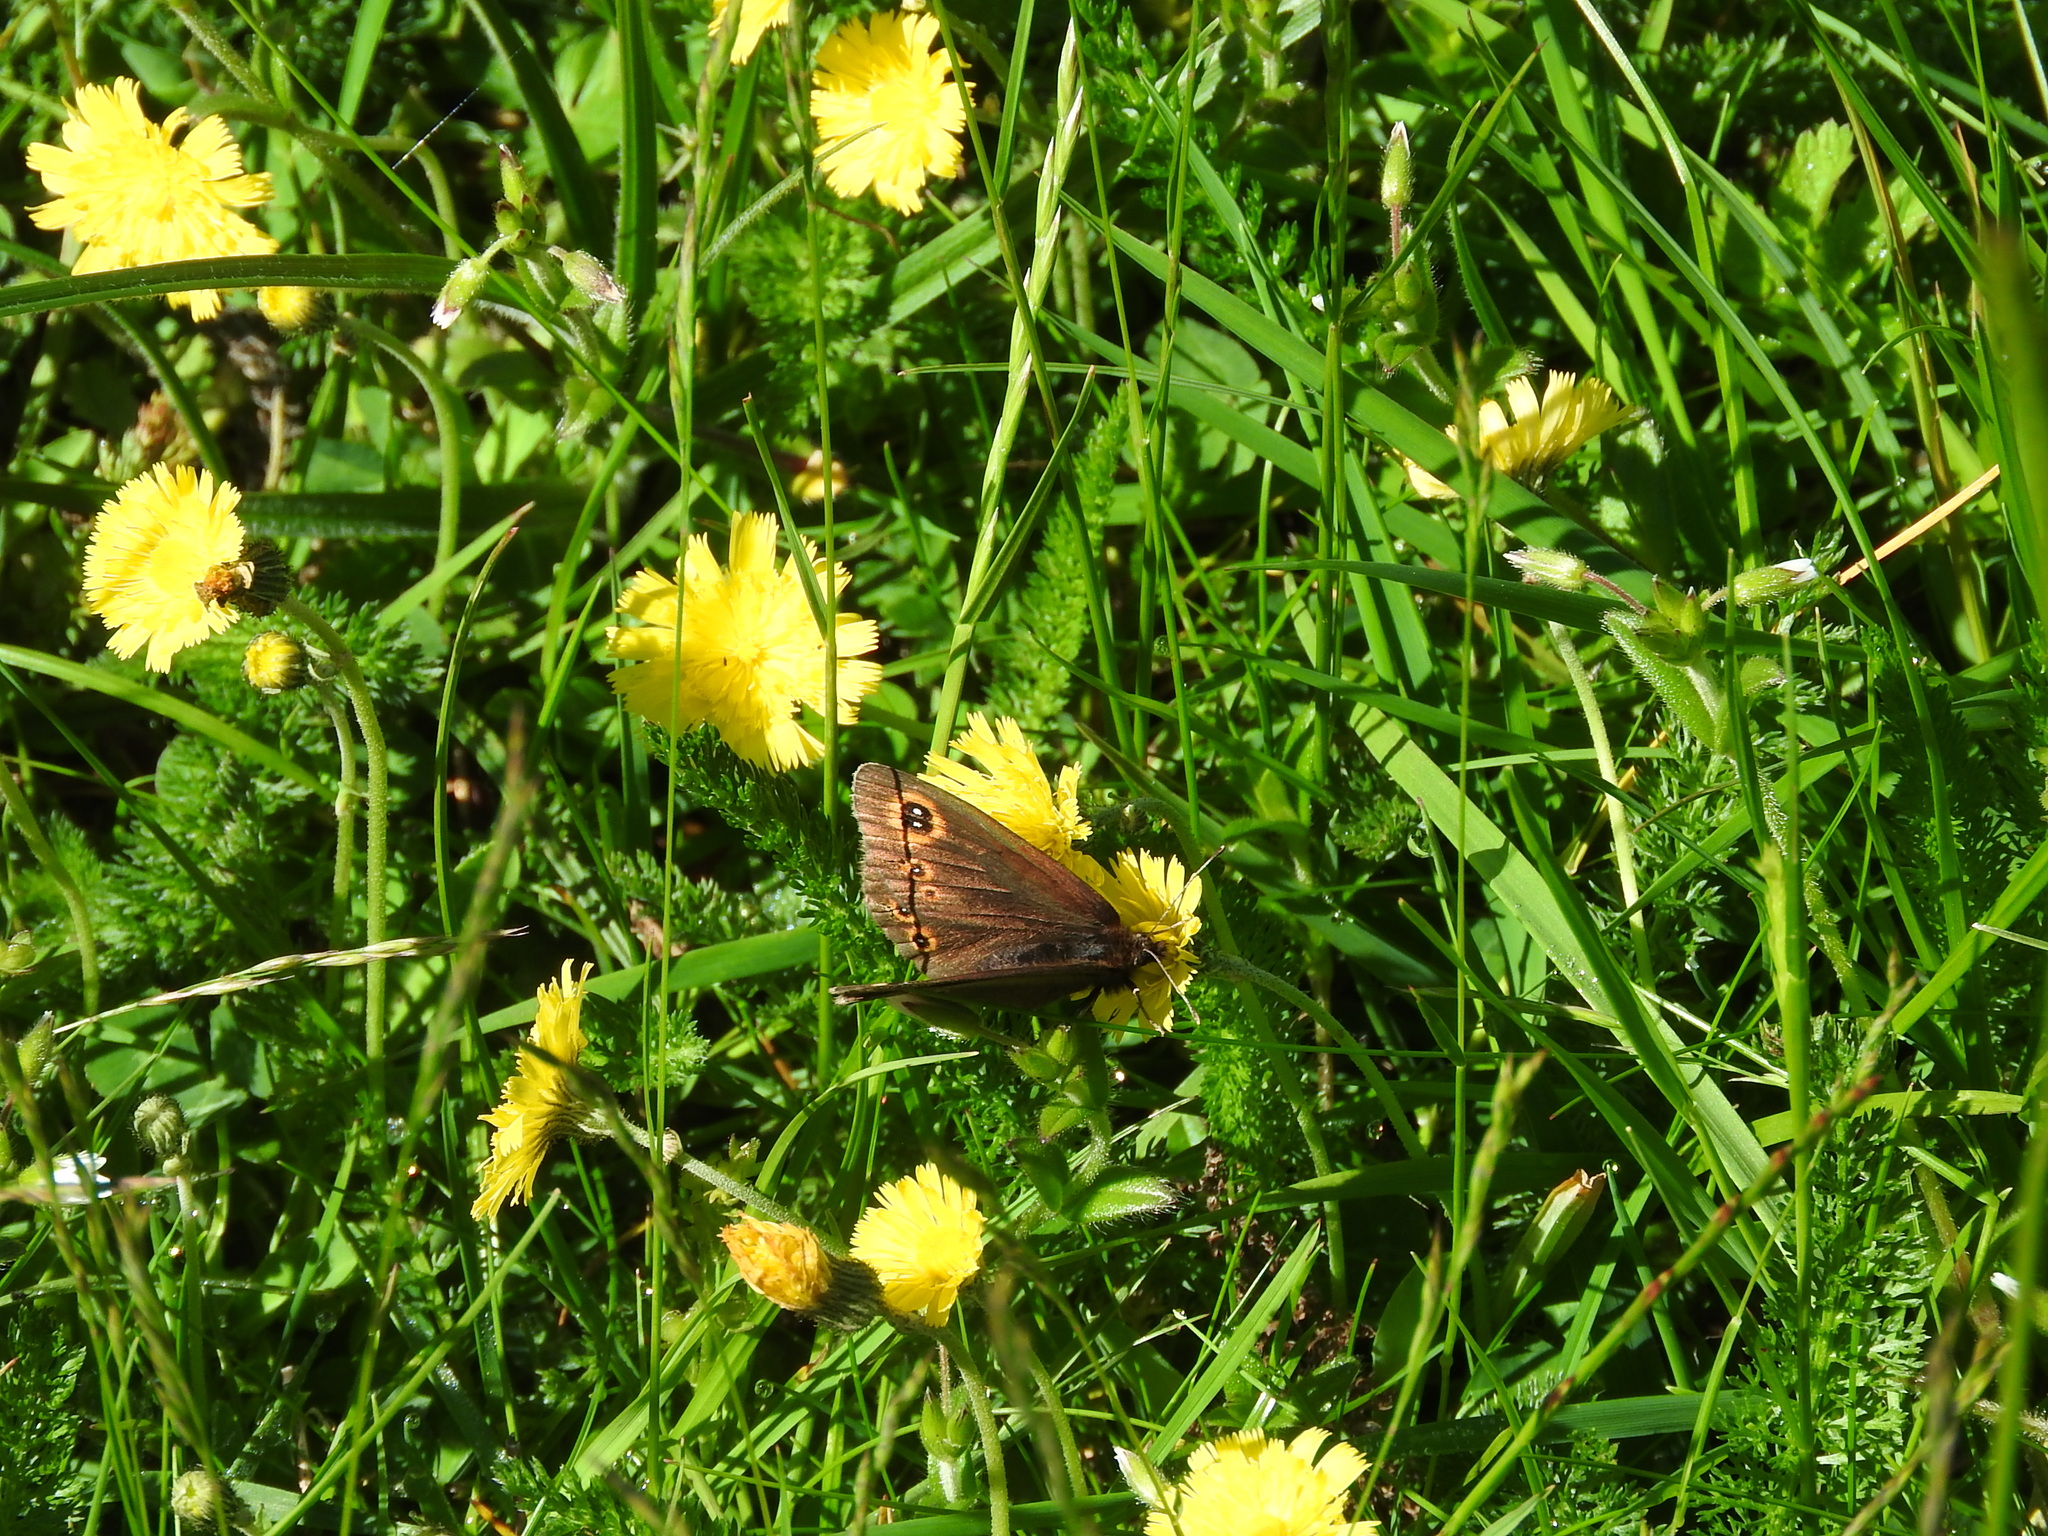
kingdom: Animalia
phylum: Arthropoda
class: Insecta
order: Lepidoptera
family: Nymphalidae
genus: Erebia
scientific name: Erebia medusa
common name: Woodland ringlet
